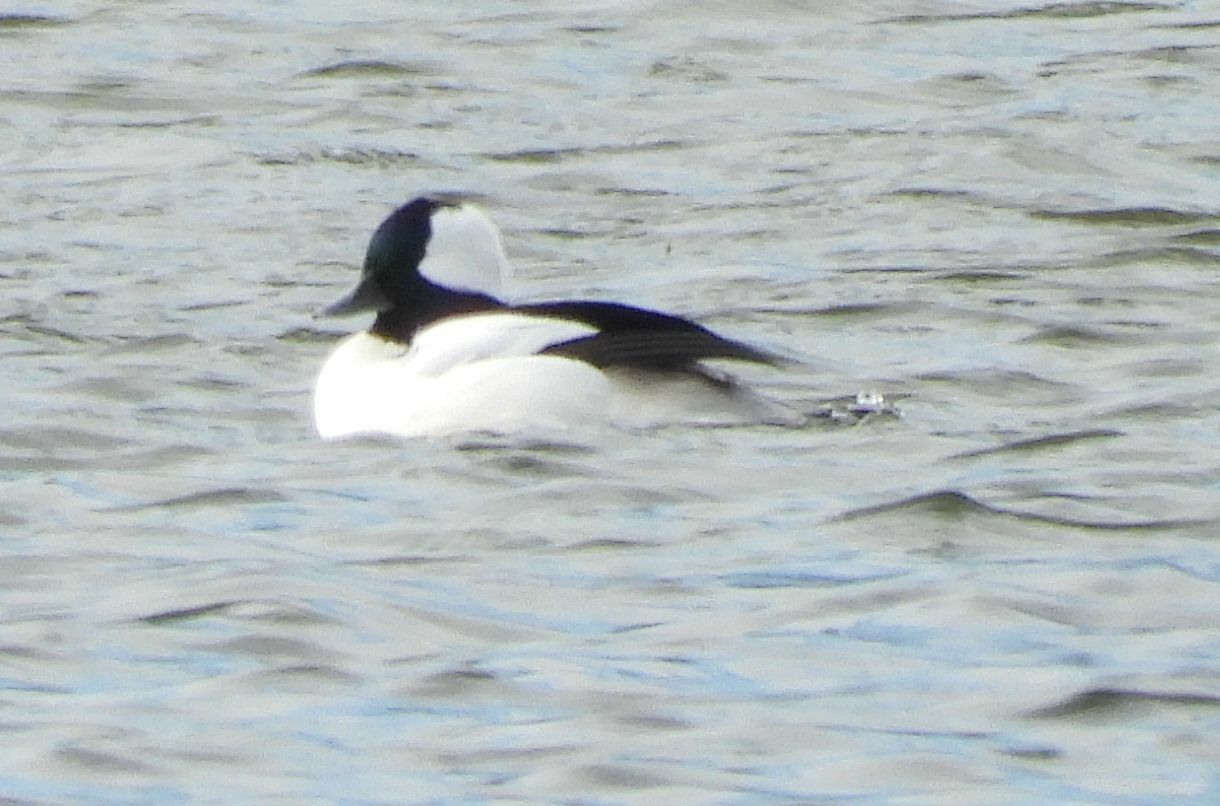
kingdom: Animalia
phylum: Chordata
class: Aves
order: Anseriformes
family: Anatidae
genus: Bucephala
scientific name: Bucephala albeola
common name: Bufflehead
